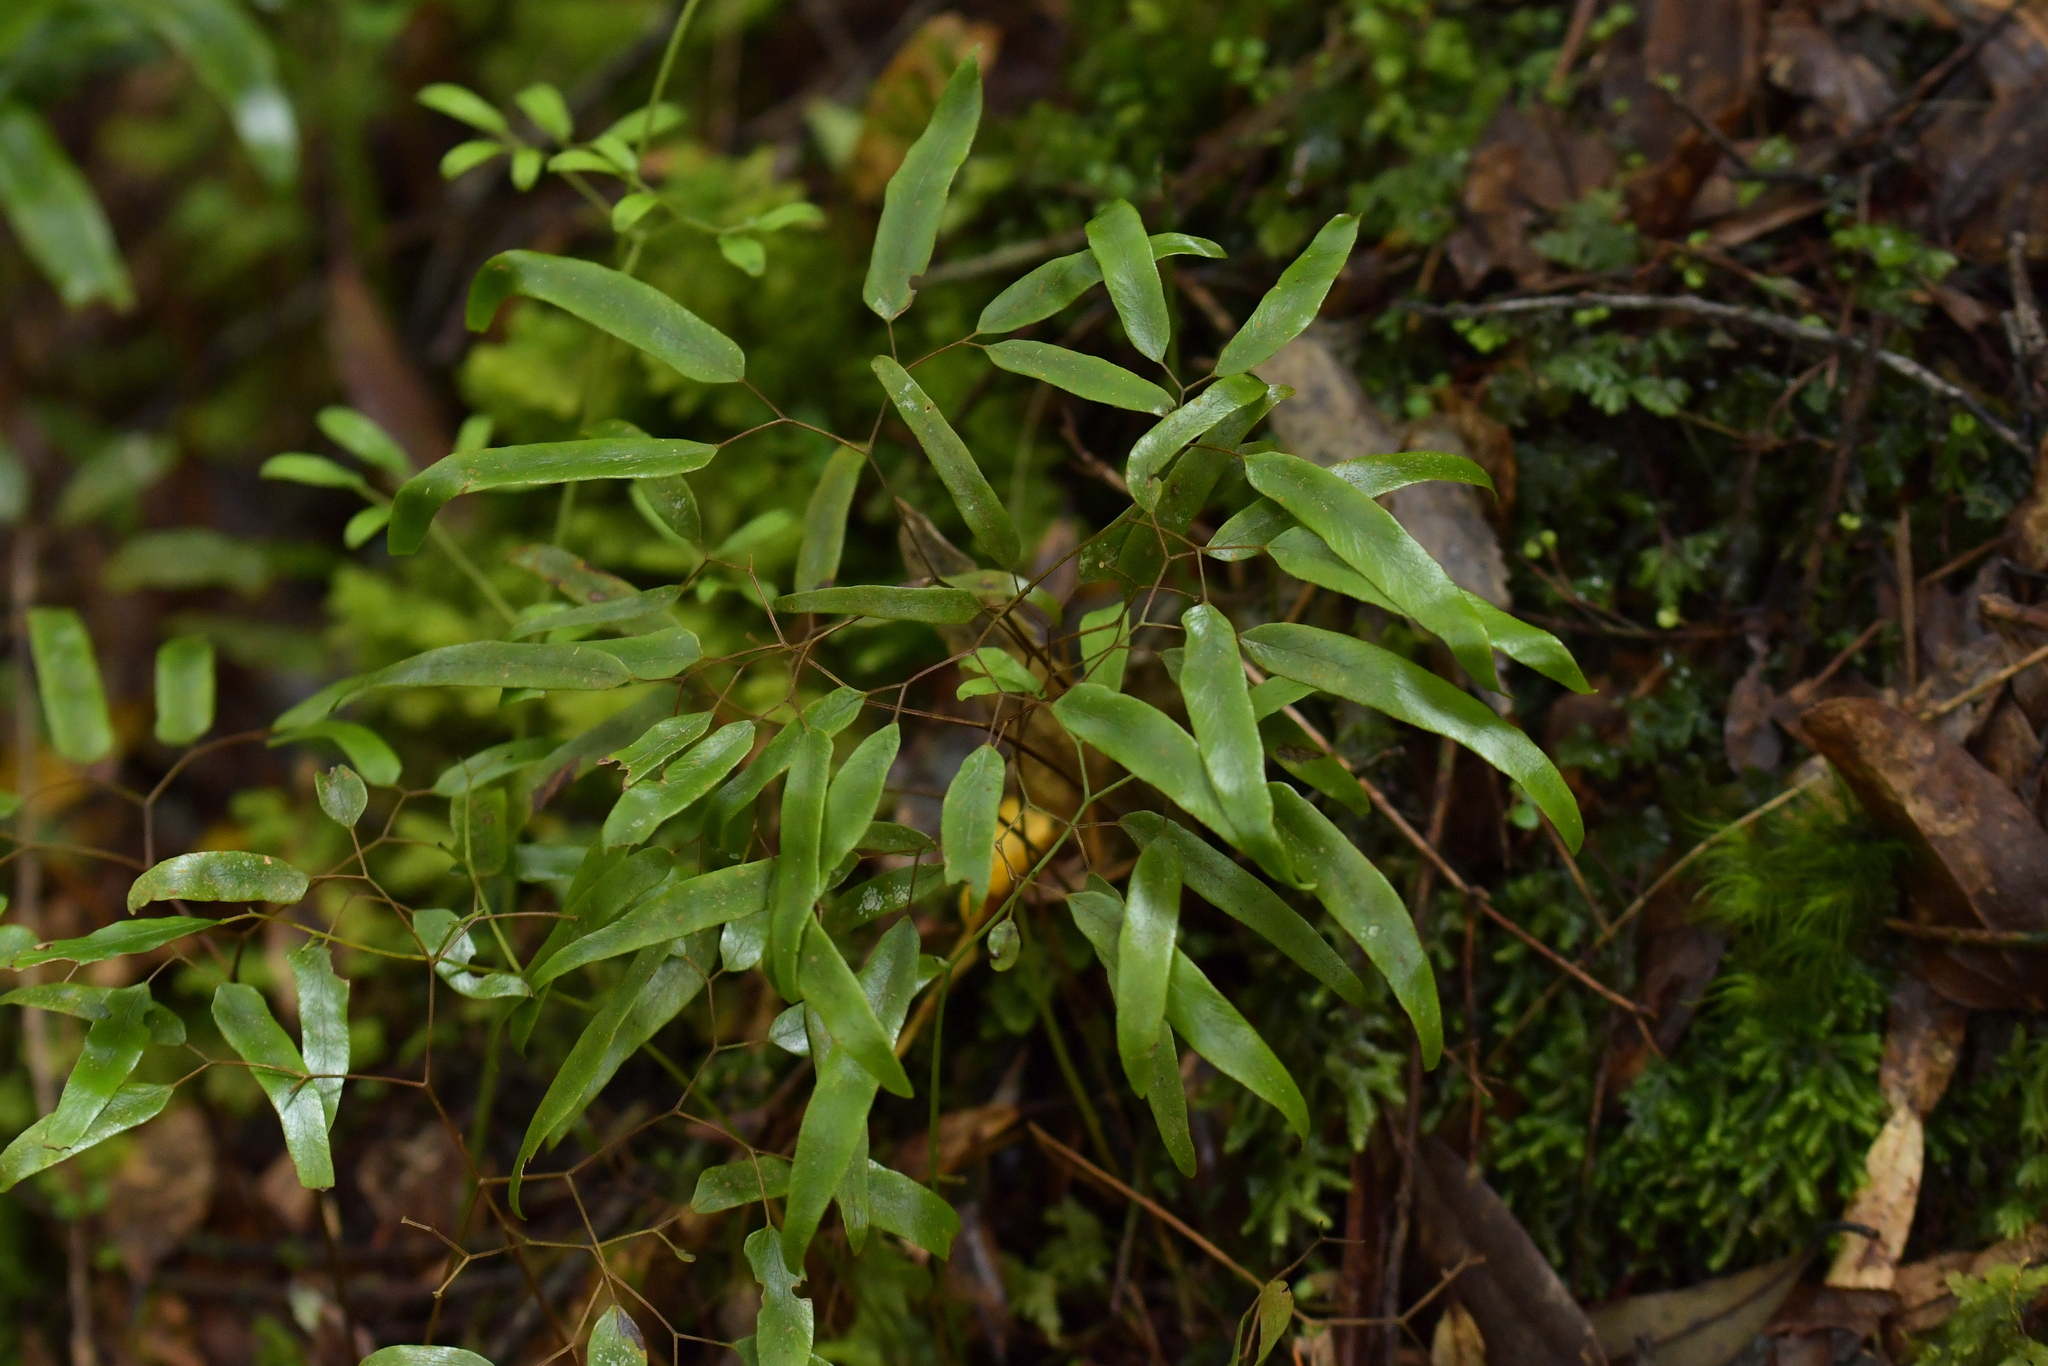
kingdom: Plantae
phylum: Tracheophyta
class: Polypodiopsida
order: Schizaeales
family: Lygodiaceae
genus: Lygodium
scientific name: Lygodium articulatum
